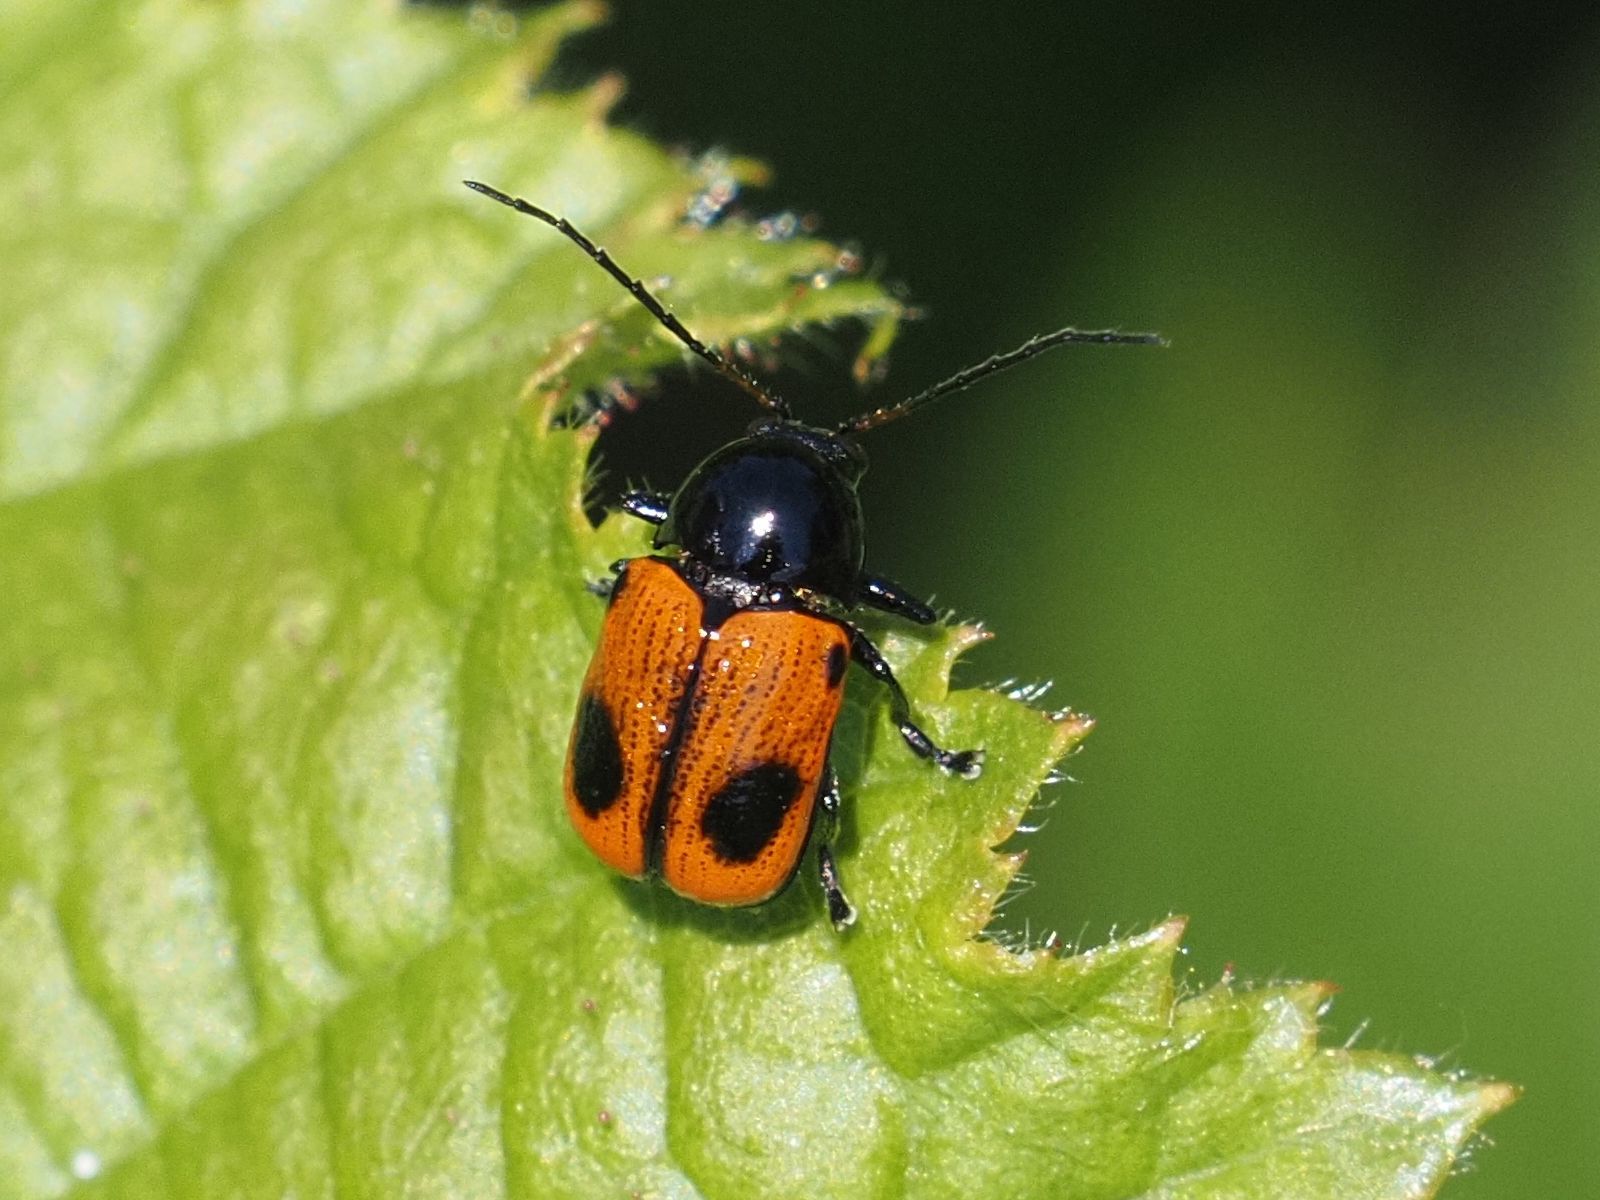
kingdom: Animalia
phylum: Arthropoda
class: Insecta
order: Coleoptera
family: Chrysomelidae
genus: Chiridopsis
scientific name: Chiridopsis bipunctata
